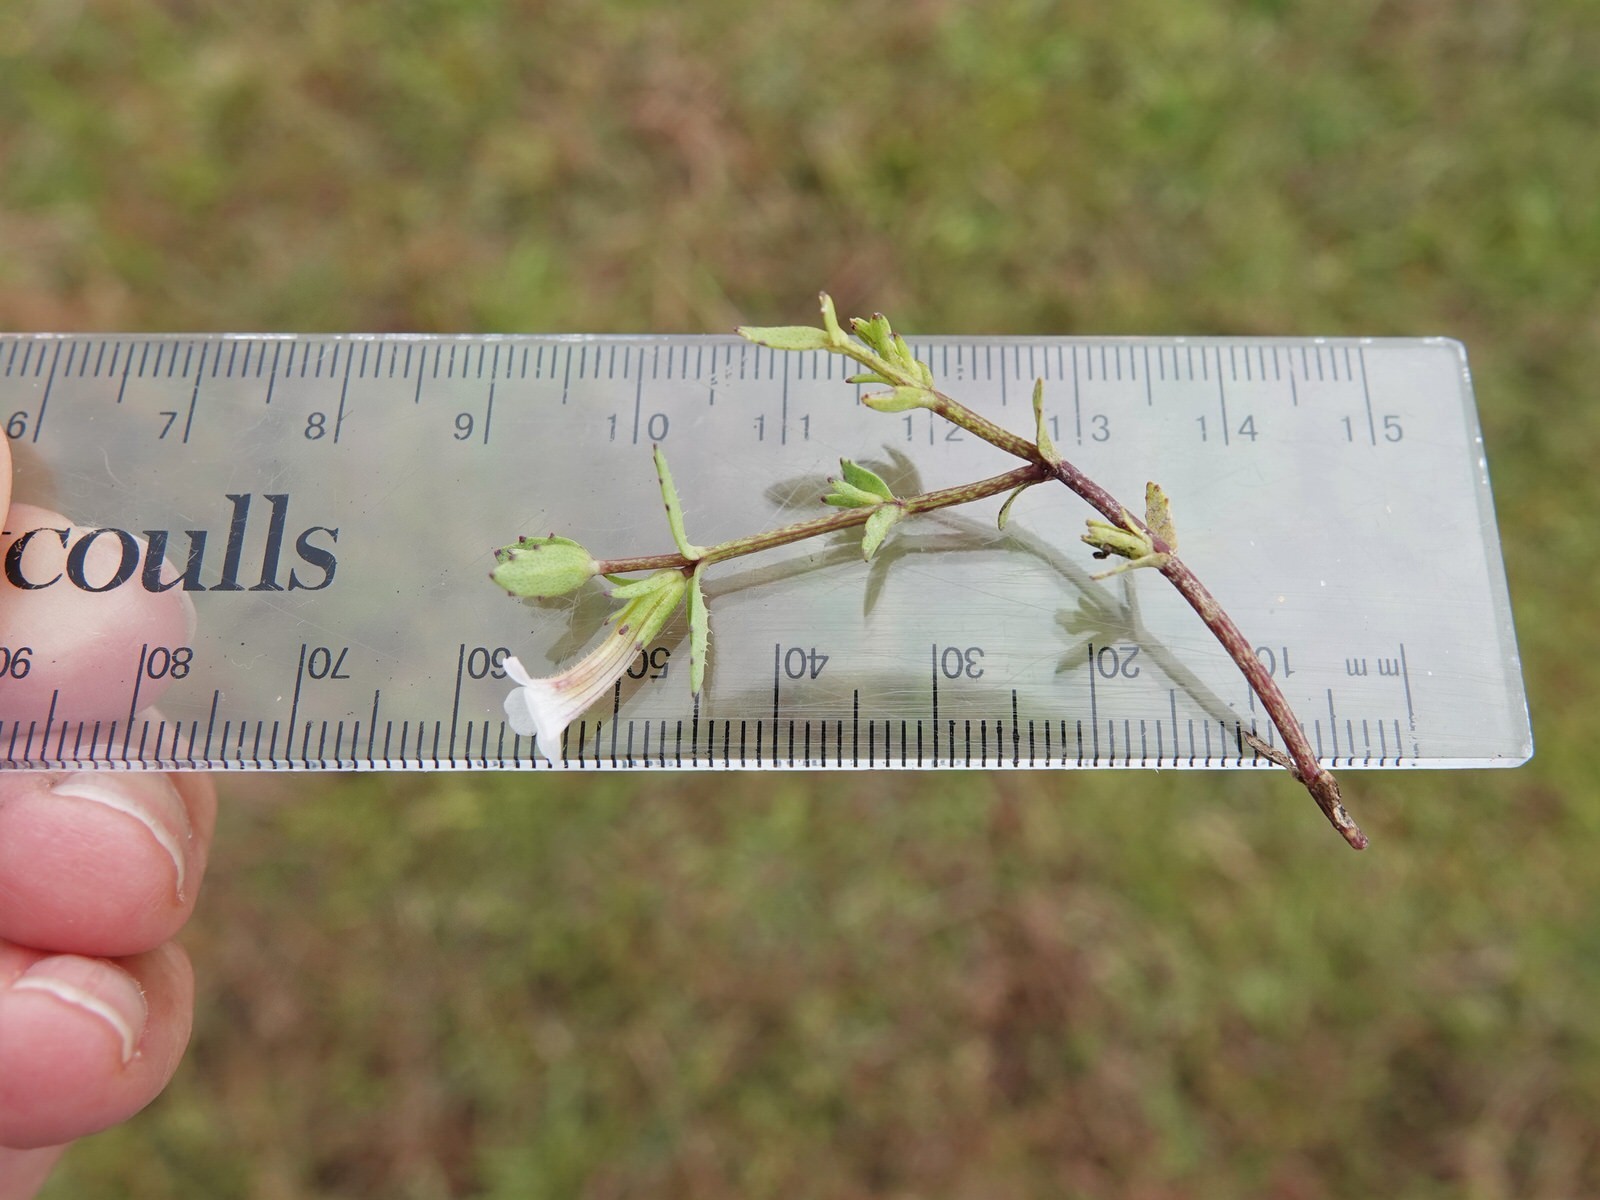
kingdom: Plantae
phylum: Tracheophyta
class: Magnoliopsida
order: Lamiales
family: Plantaginaceae
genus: Gratiola
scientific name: Gratiola sexdentata
